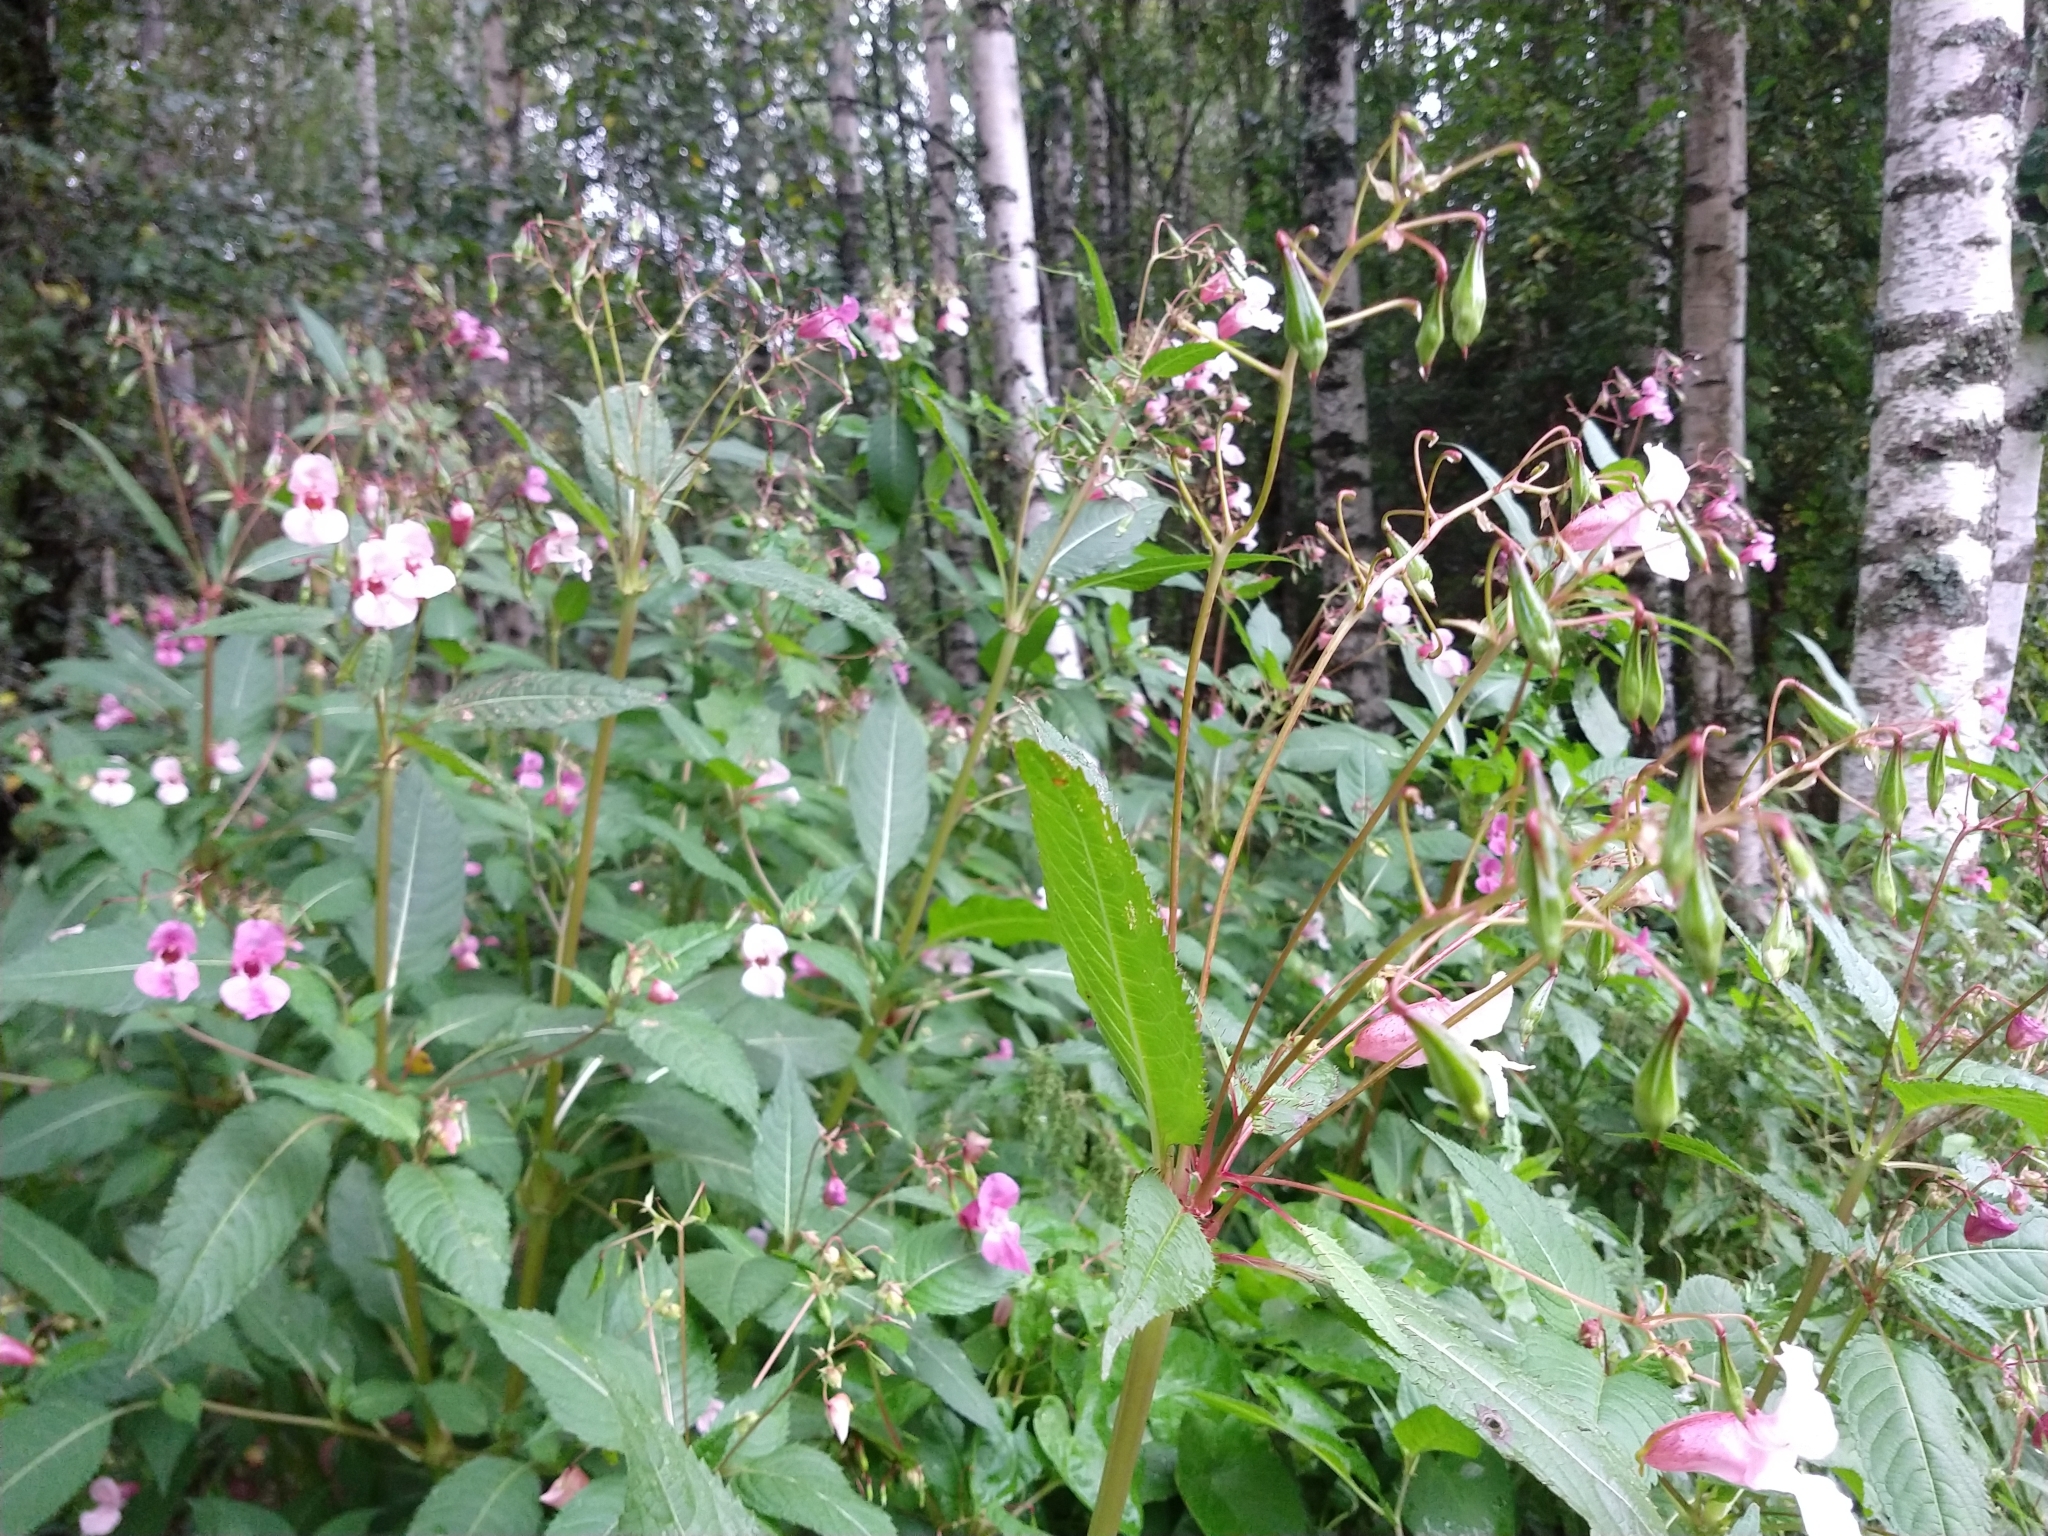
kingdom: Plantae
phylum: Tracheophyta
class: Magnoliopsida
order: Ericales
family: Balsaminaceae
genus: Impatiens
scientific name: Impatiens glandulifera
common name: Himalayan balsam
